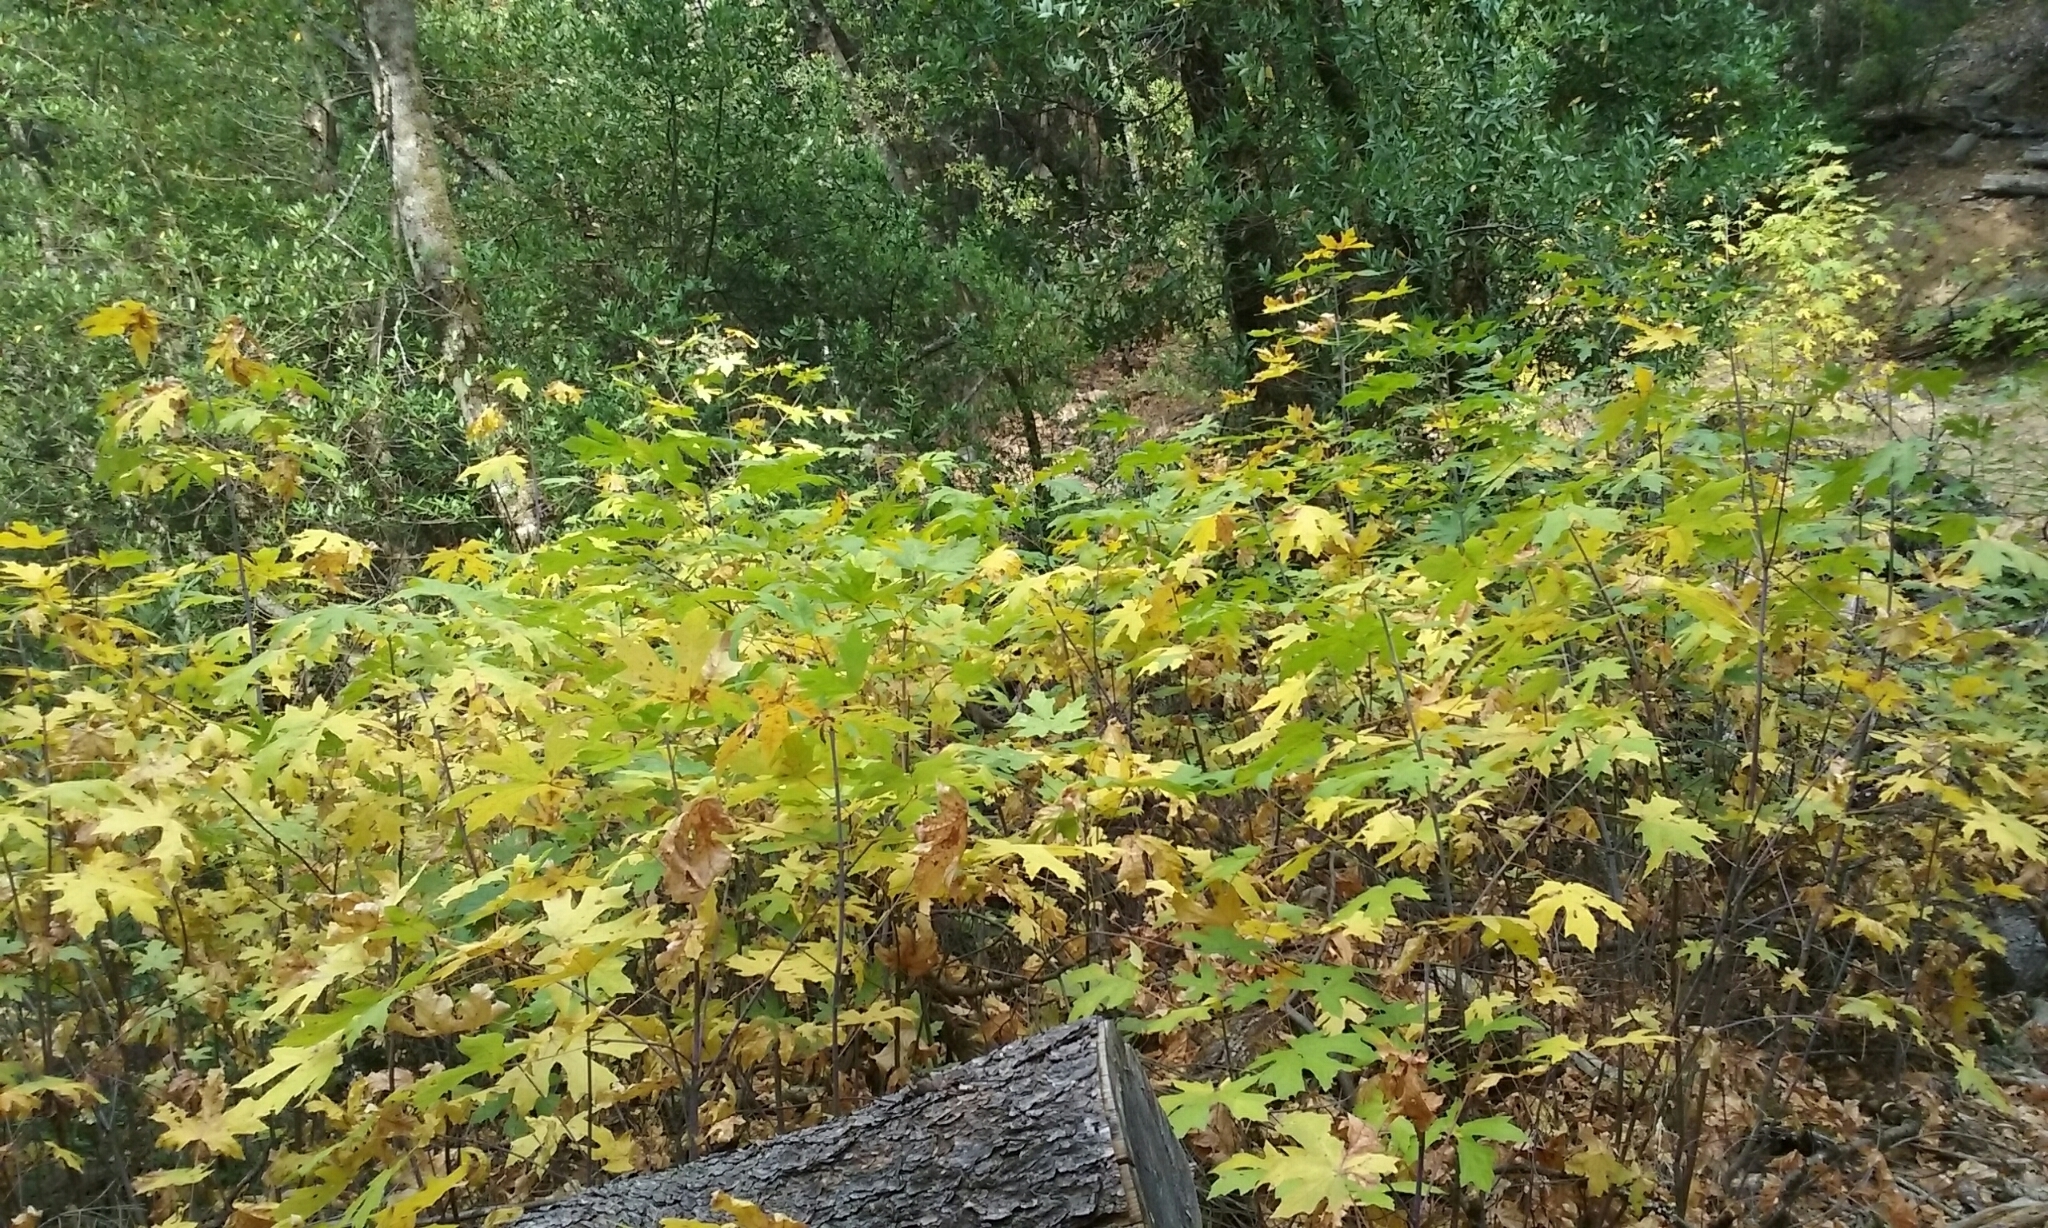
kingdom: Plantae
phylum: Tracheophyta
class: Magnoliopsida
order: Sapindales
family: Sapindaceae
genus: Acer
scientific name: Acer macrophyllum
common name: Oregon maple
